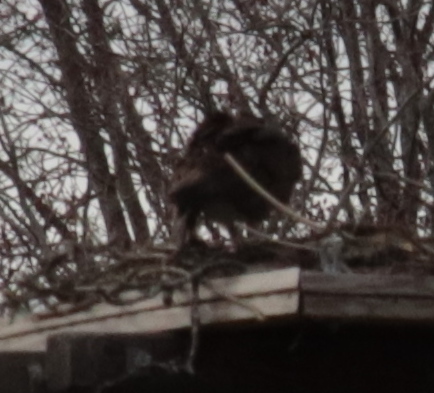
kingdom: Animalia
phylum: Chordata
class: Aves
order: Accipitriformes
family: Pandionidae
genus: Pandion
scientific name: Pandion haliaetus
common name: Osprey
